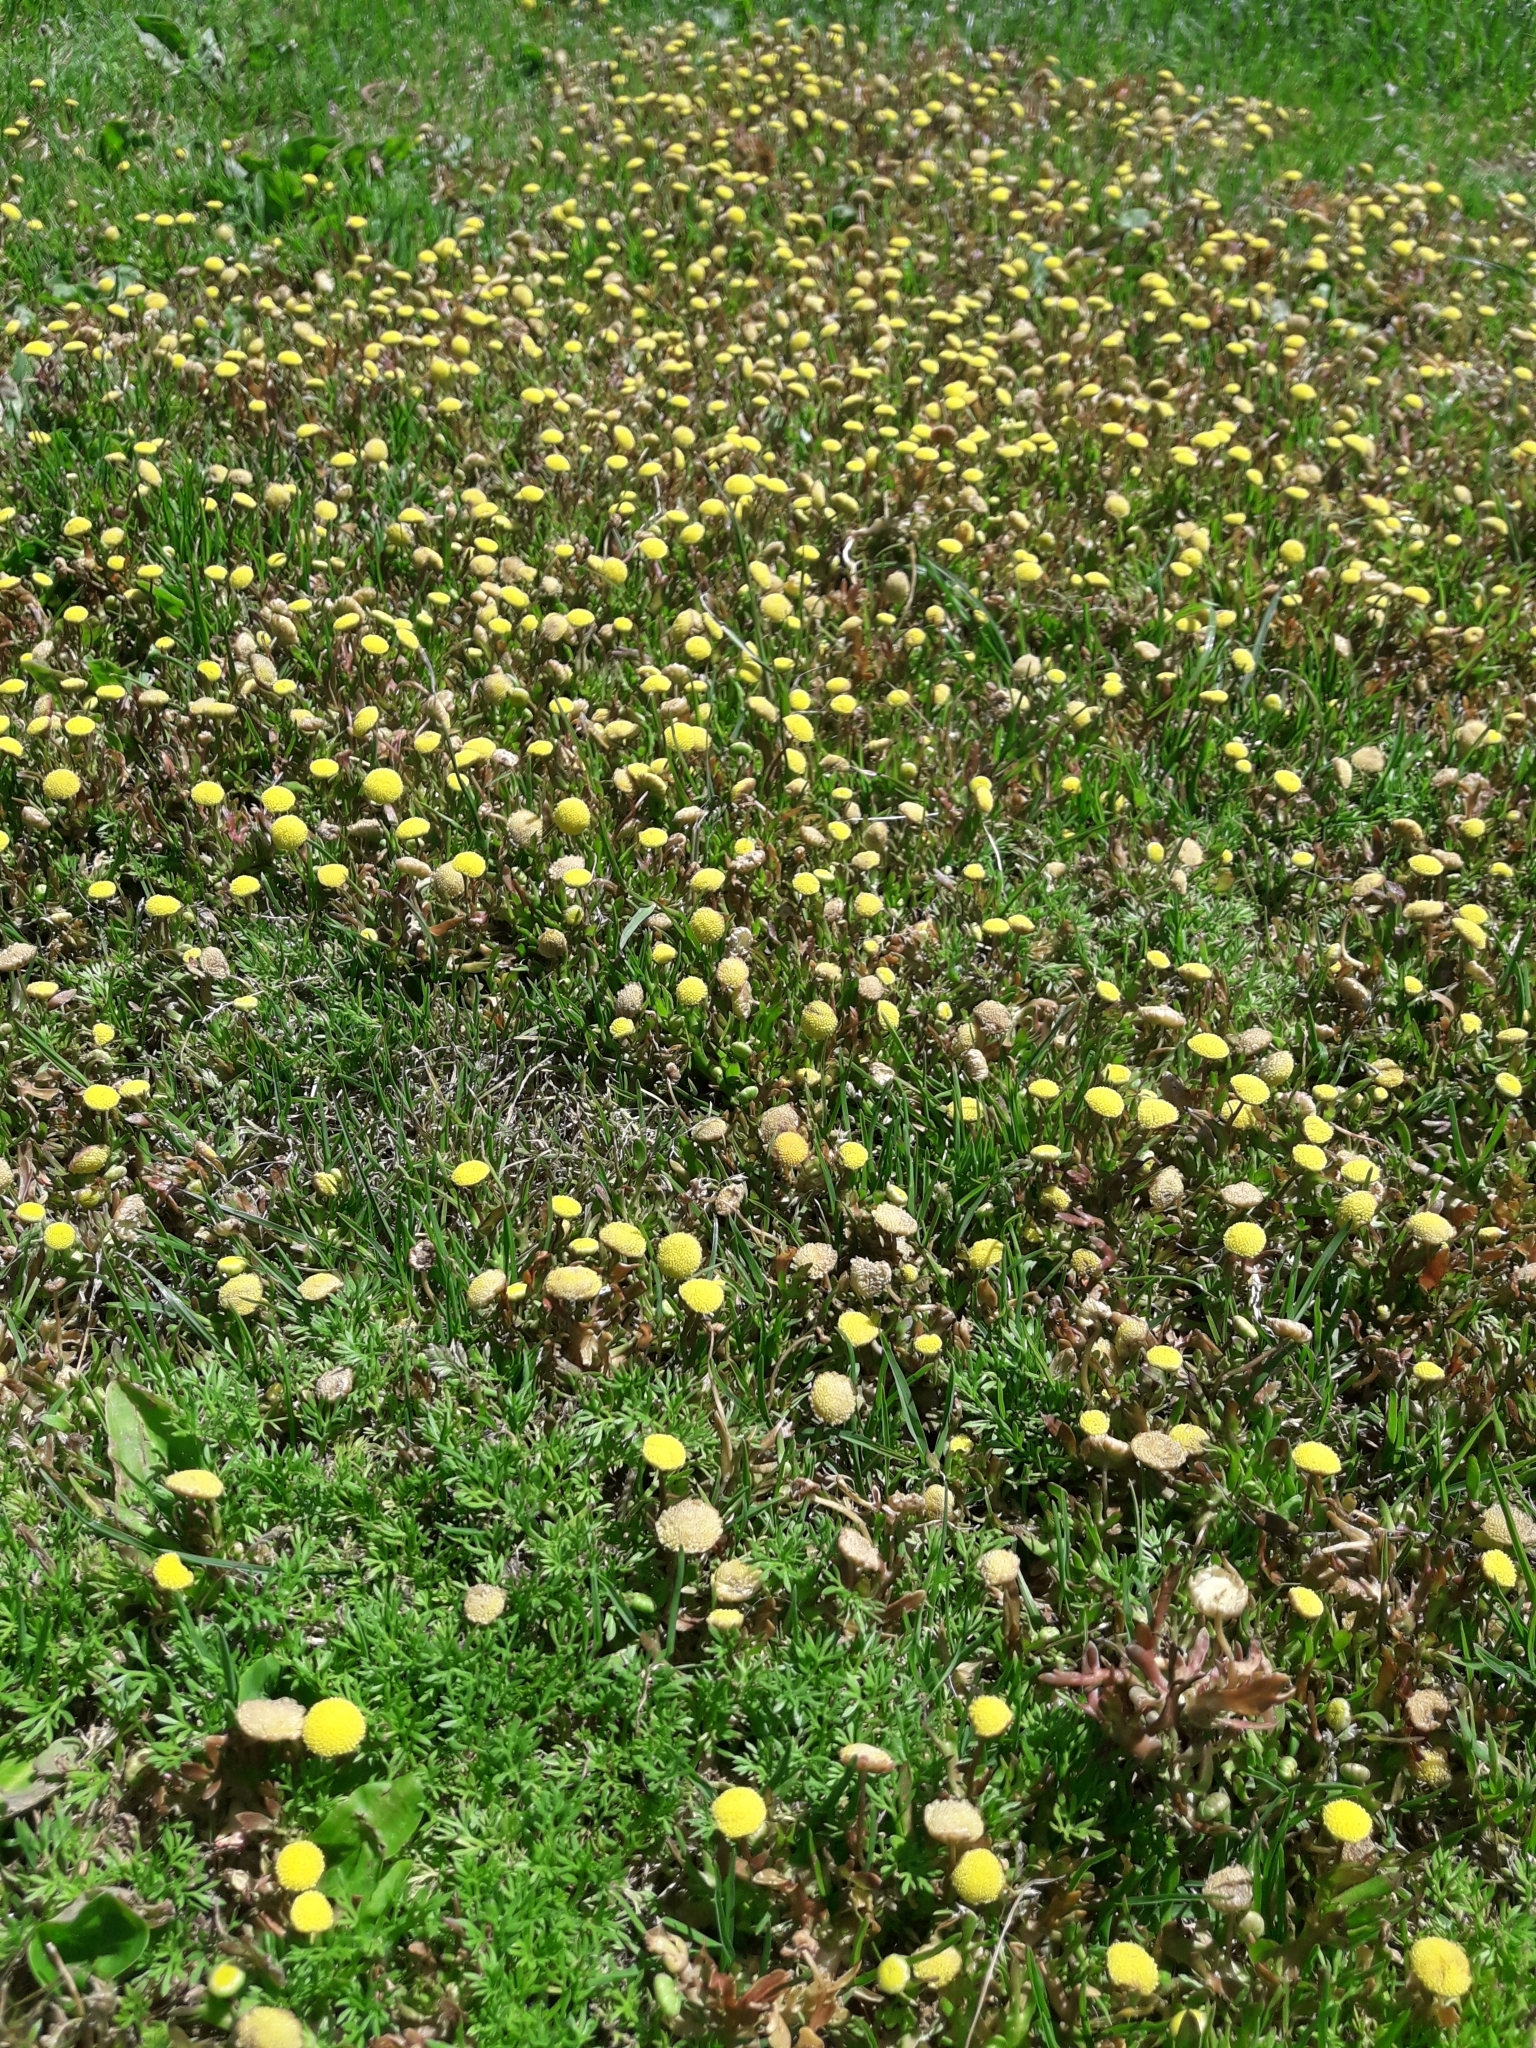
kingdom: Plantae
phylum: Tracheophyta
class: Magnoliopsida
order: Asterales
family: Asteraceae
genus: Cotula
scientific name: Cotula coronopifolia
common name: Buttonweed
